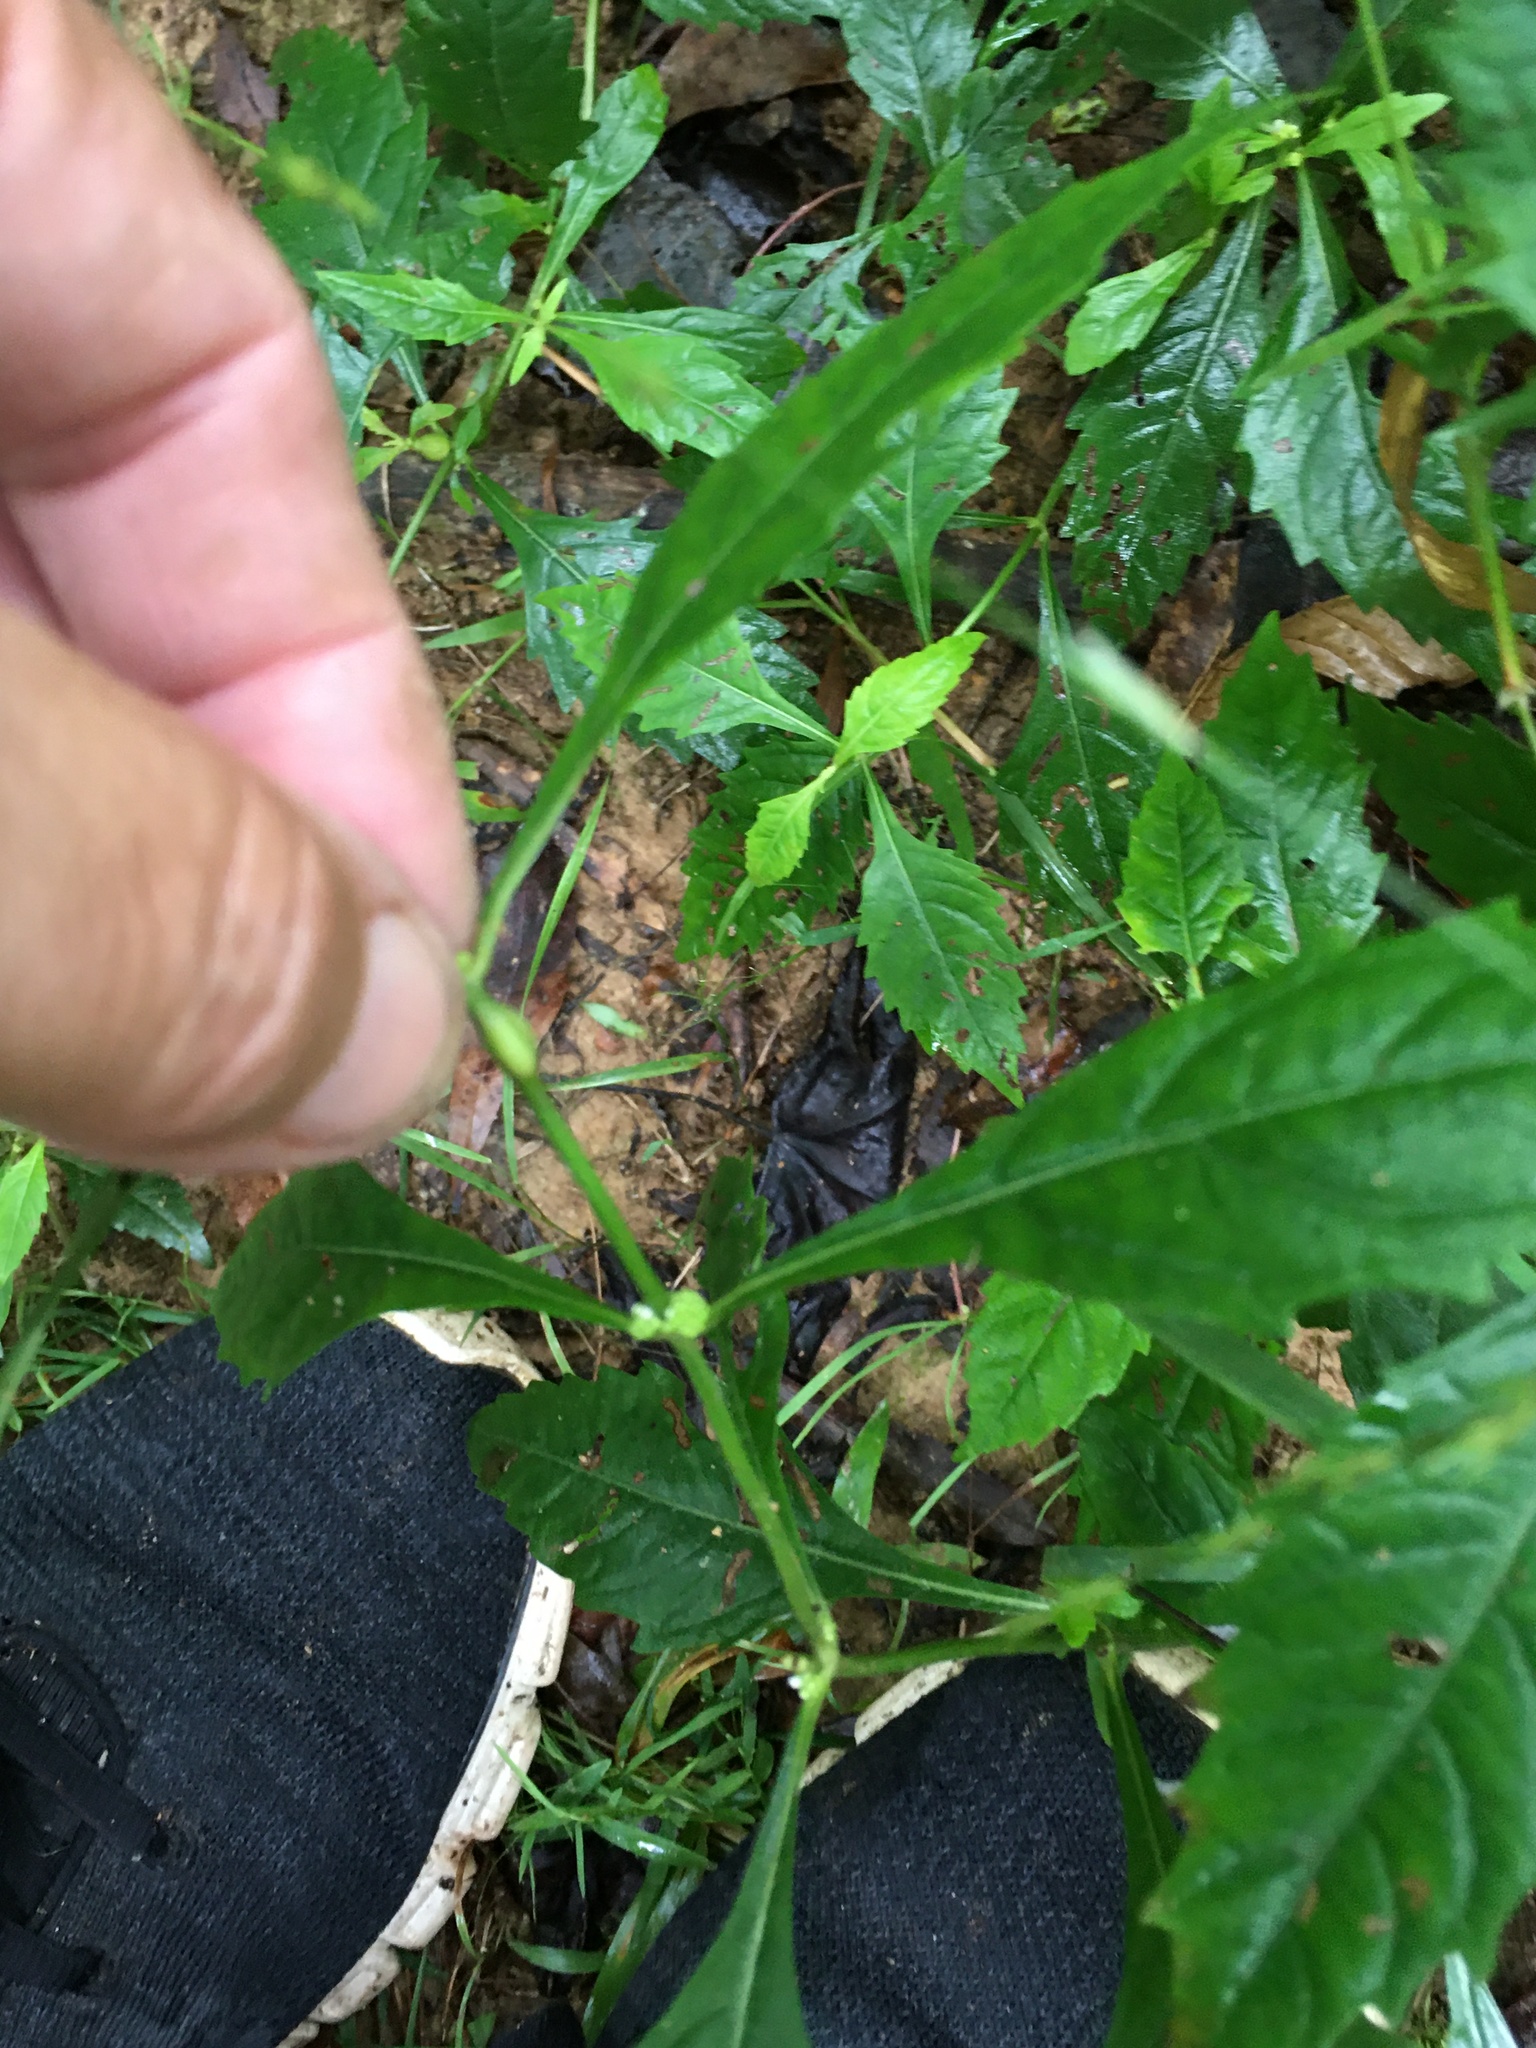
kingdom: Plantae
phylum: Tracheophyta
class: Magnoliopsida
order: Lamiales
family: Lamiaceae
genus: Lycopus
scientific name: Lycopus americanus
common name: American bugleweed
